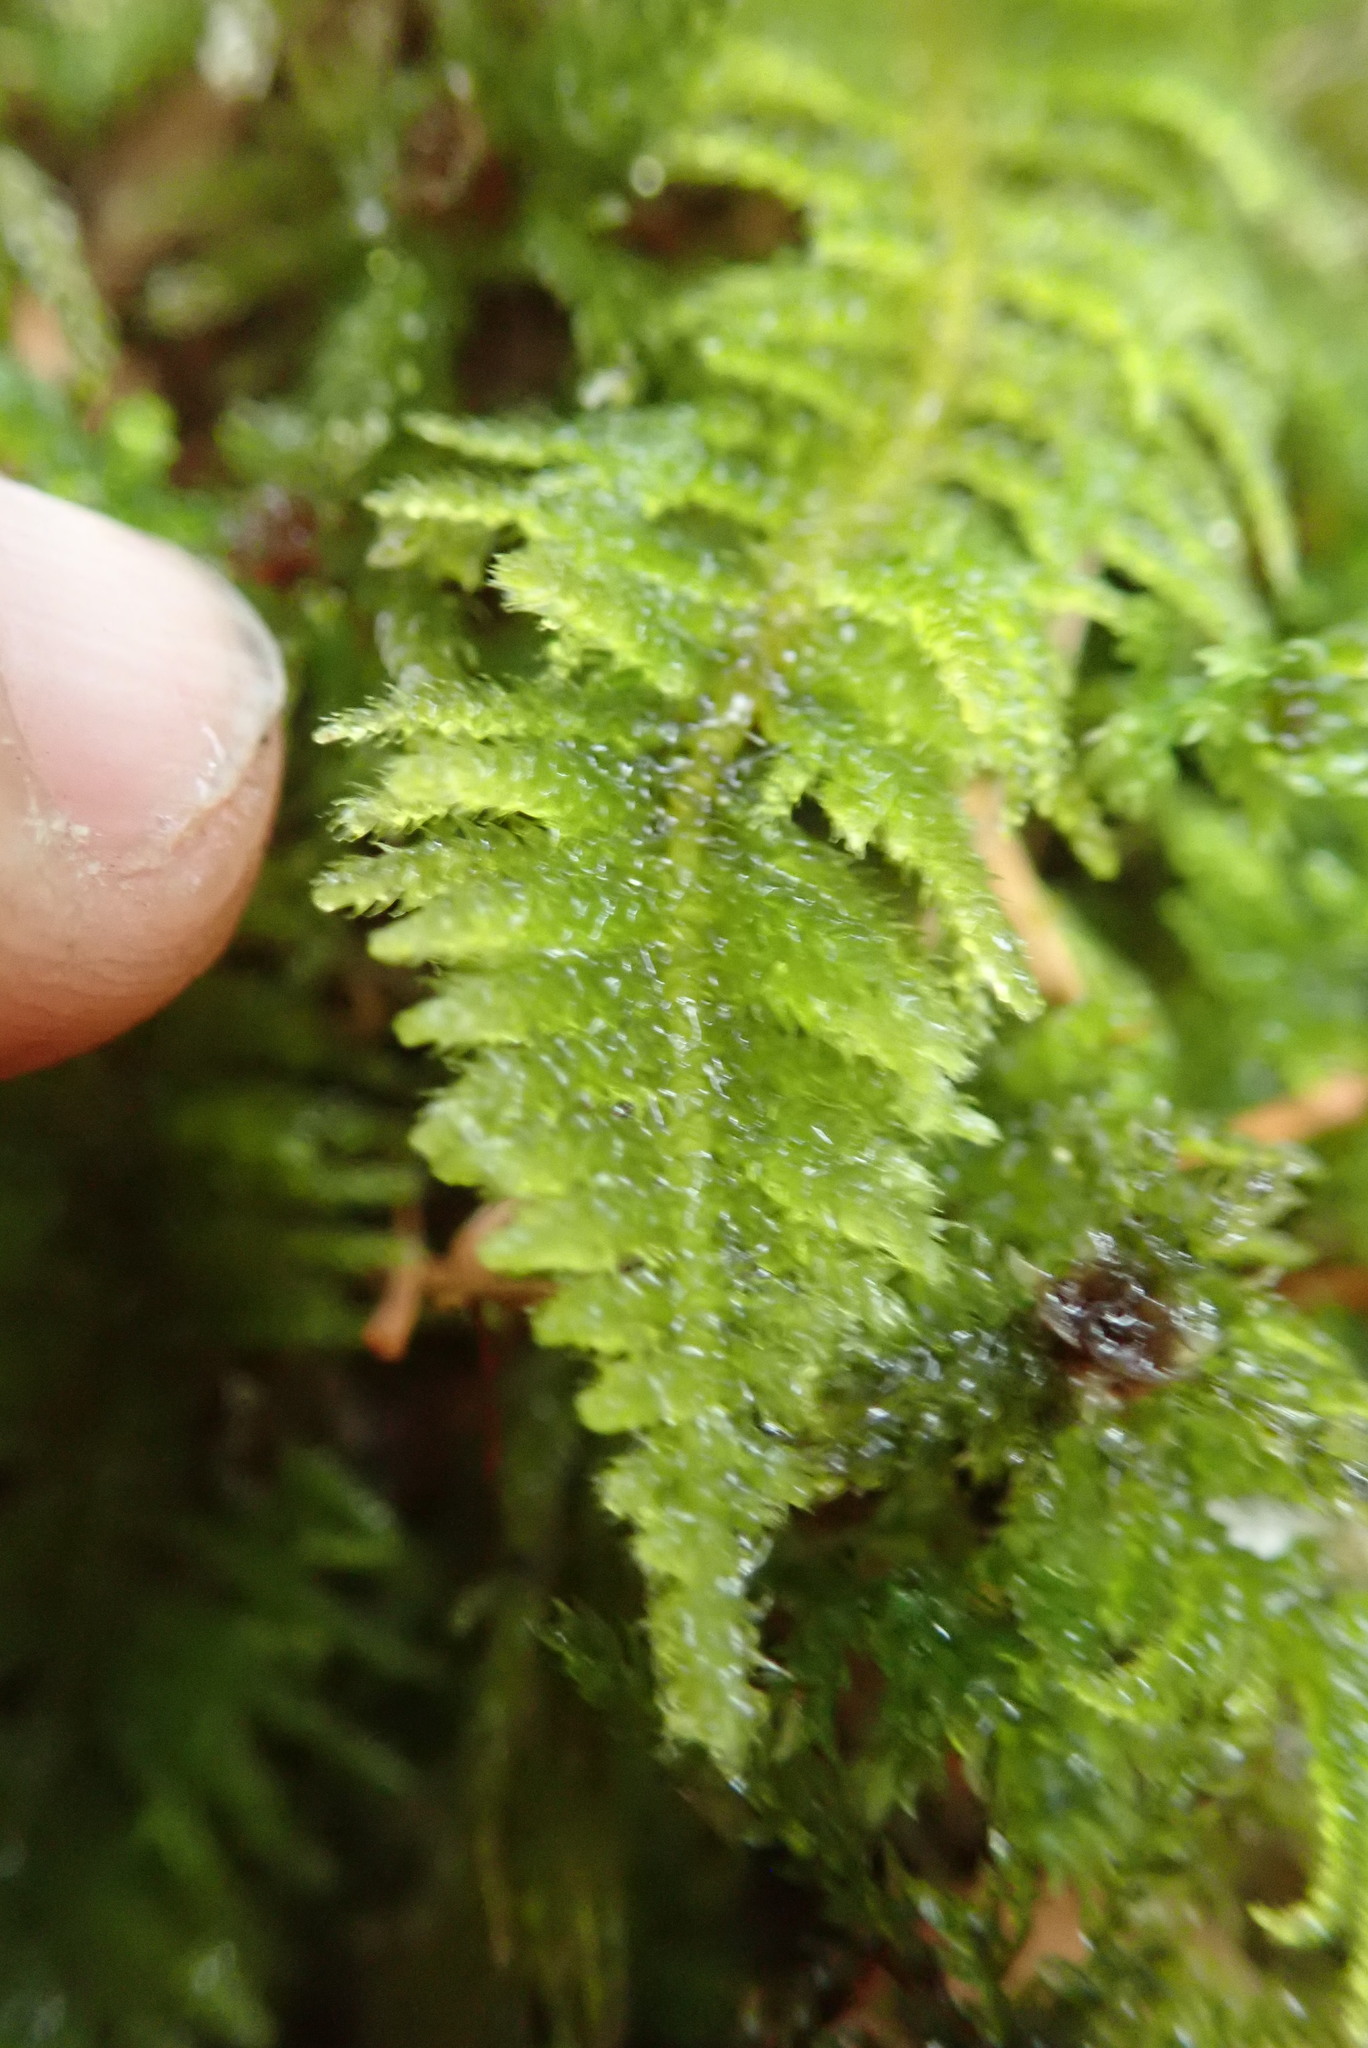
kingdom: Plantae
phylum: Bryophyta
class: Bryopsida
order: Hypnales
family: Brachytheciaceae
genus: Kindbergia
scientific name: Kindbergia oregana
